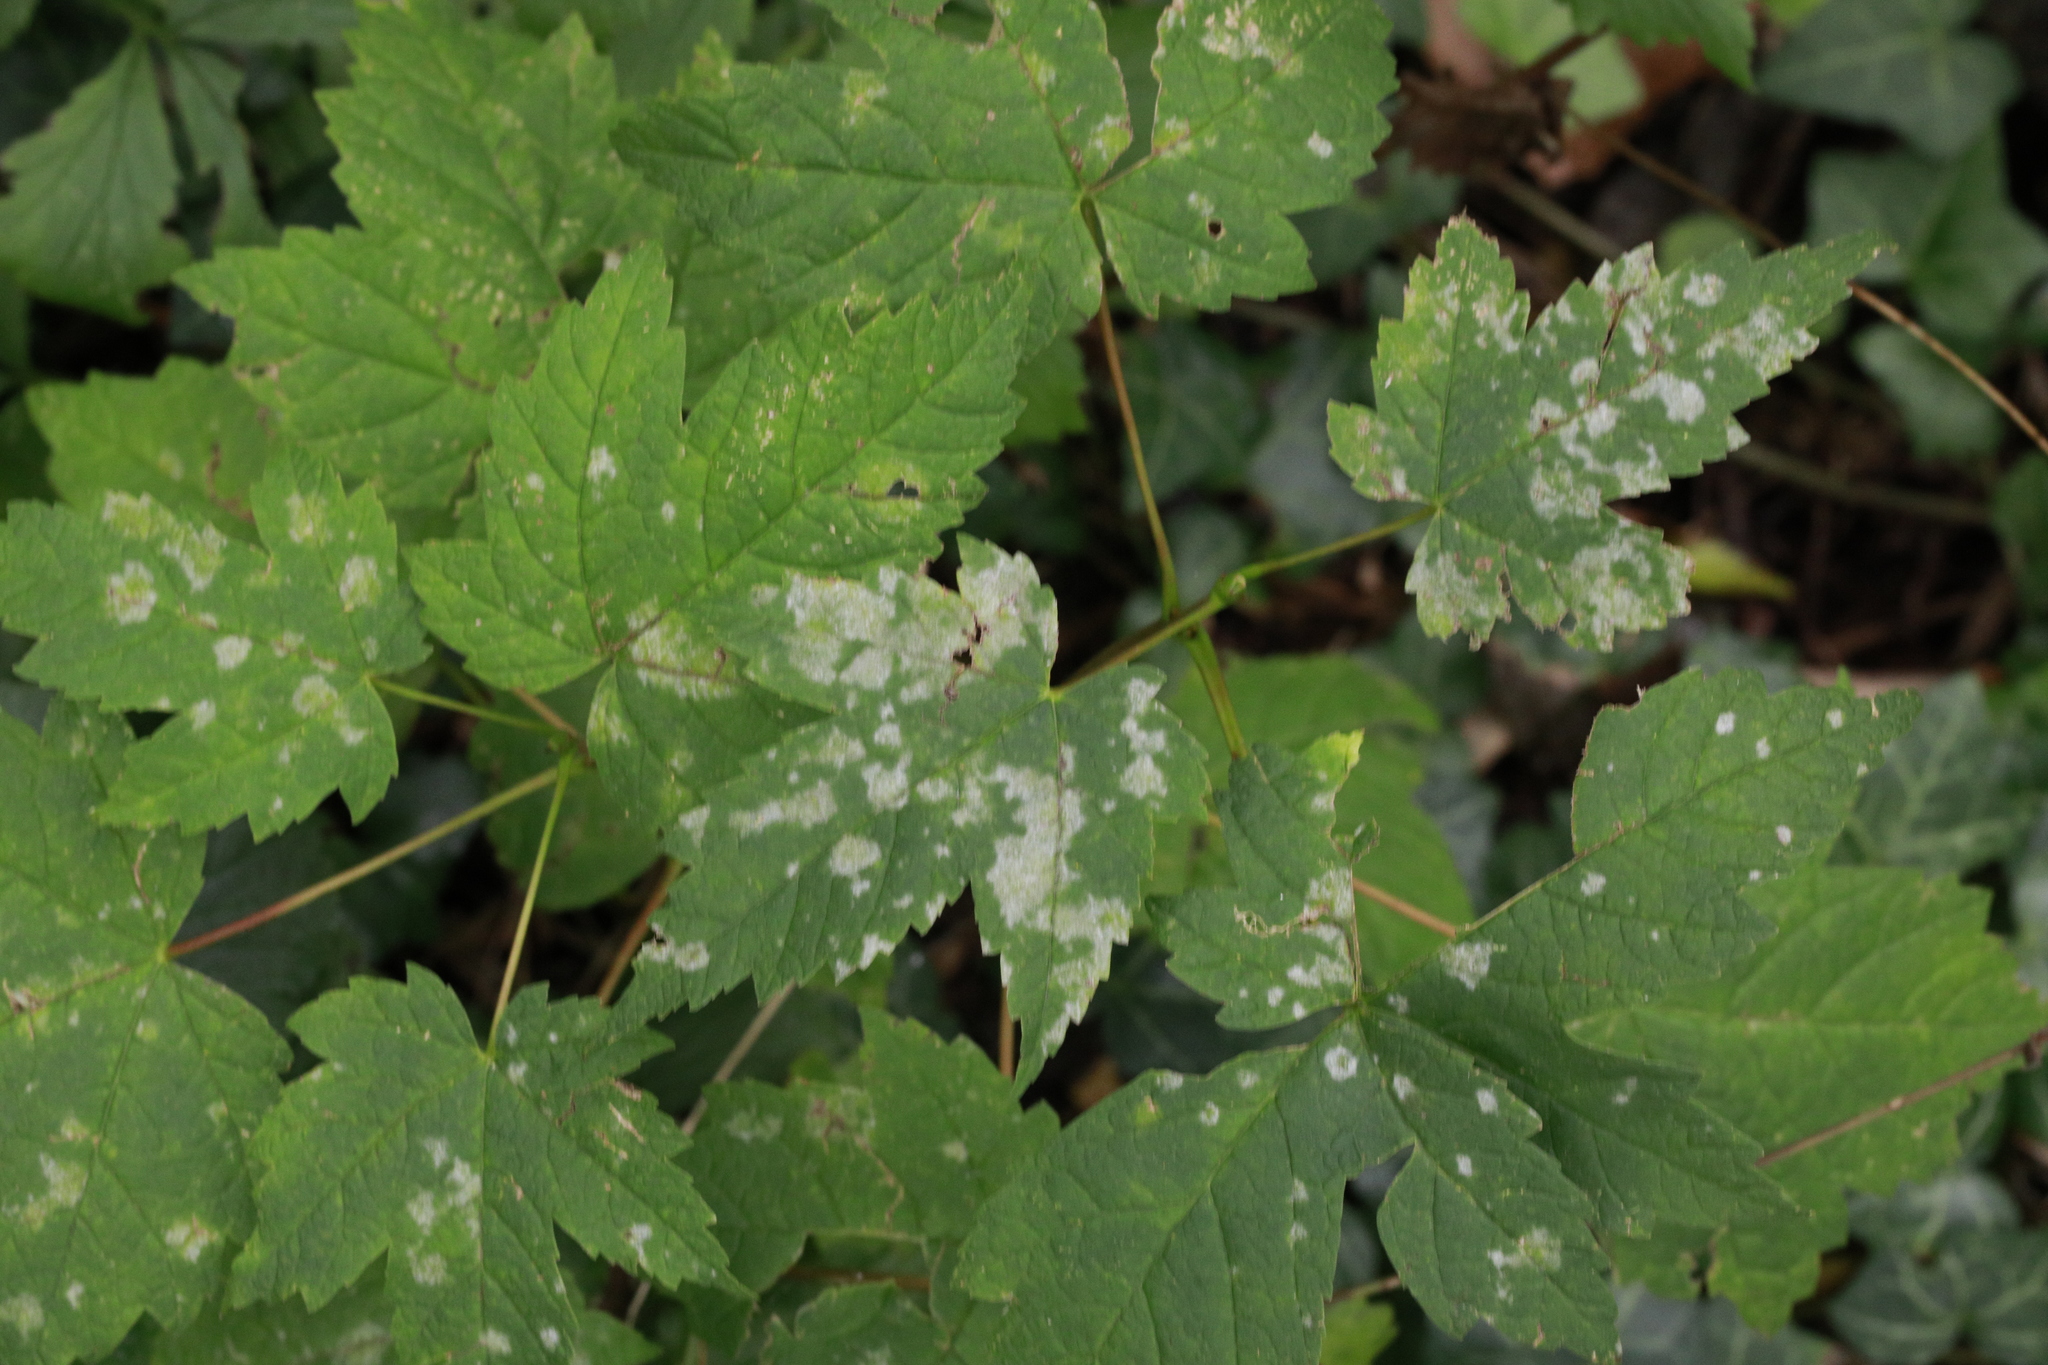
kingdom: Plantae
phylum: Tracheophyta
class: Magnoliopsida
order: Sapindales
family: Sapindaceae
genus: Acer
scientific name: Acer pseudoplatanus
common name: Sycamore
